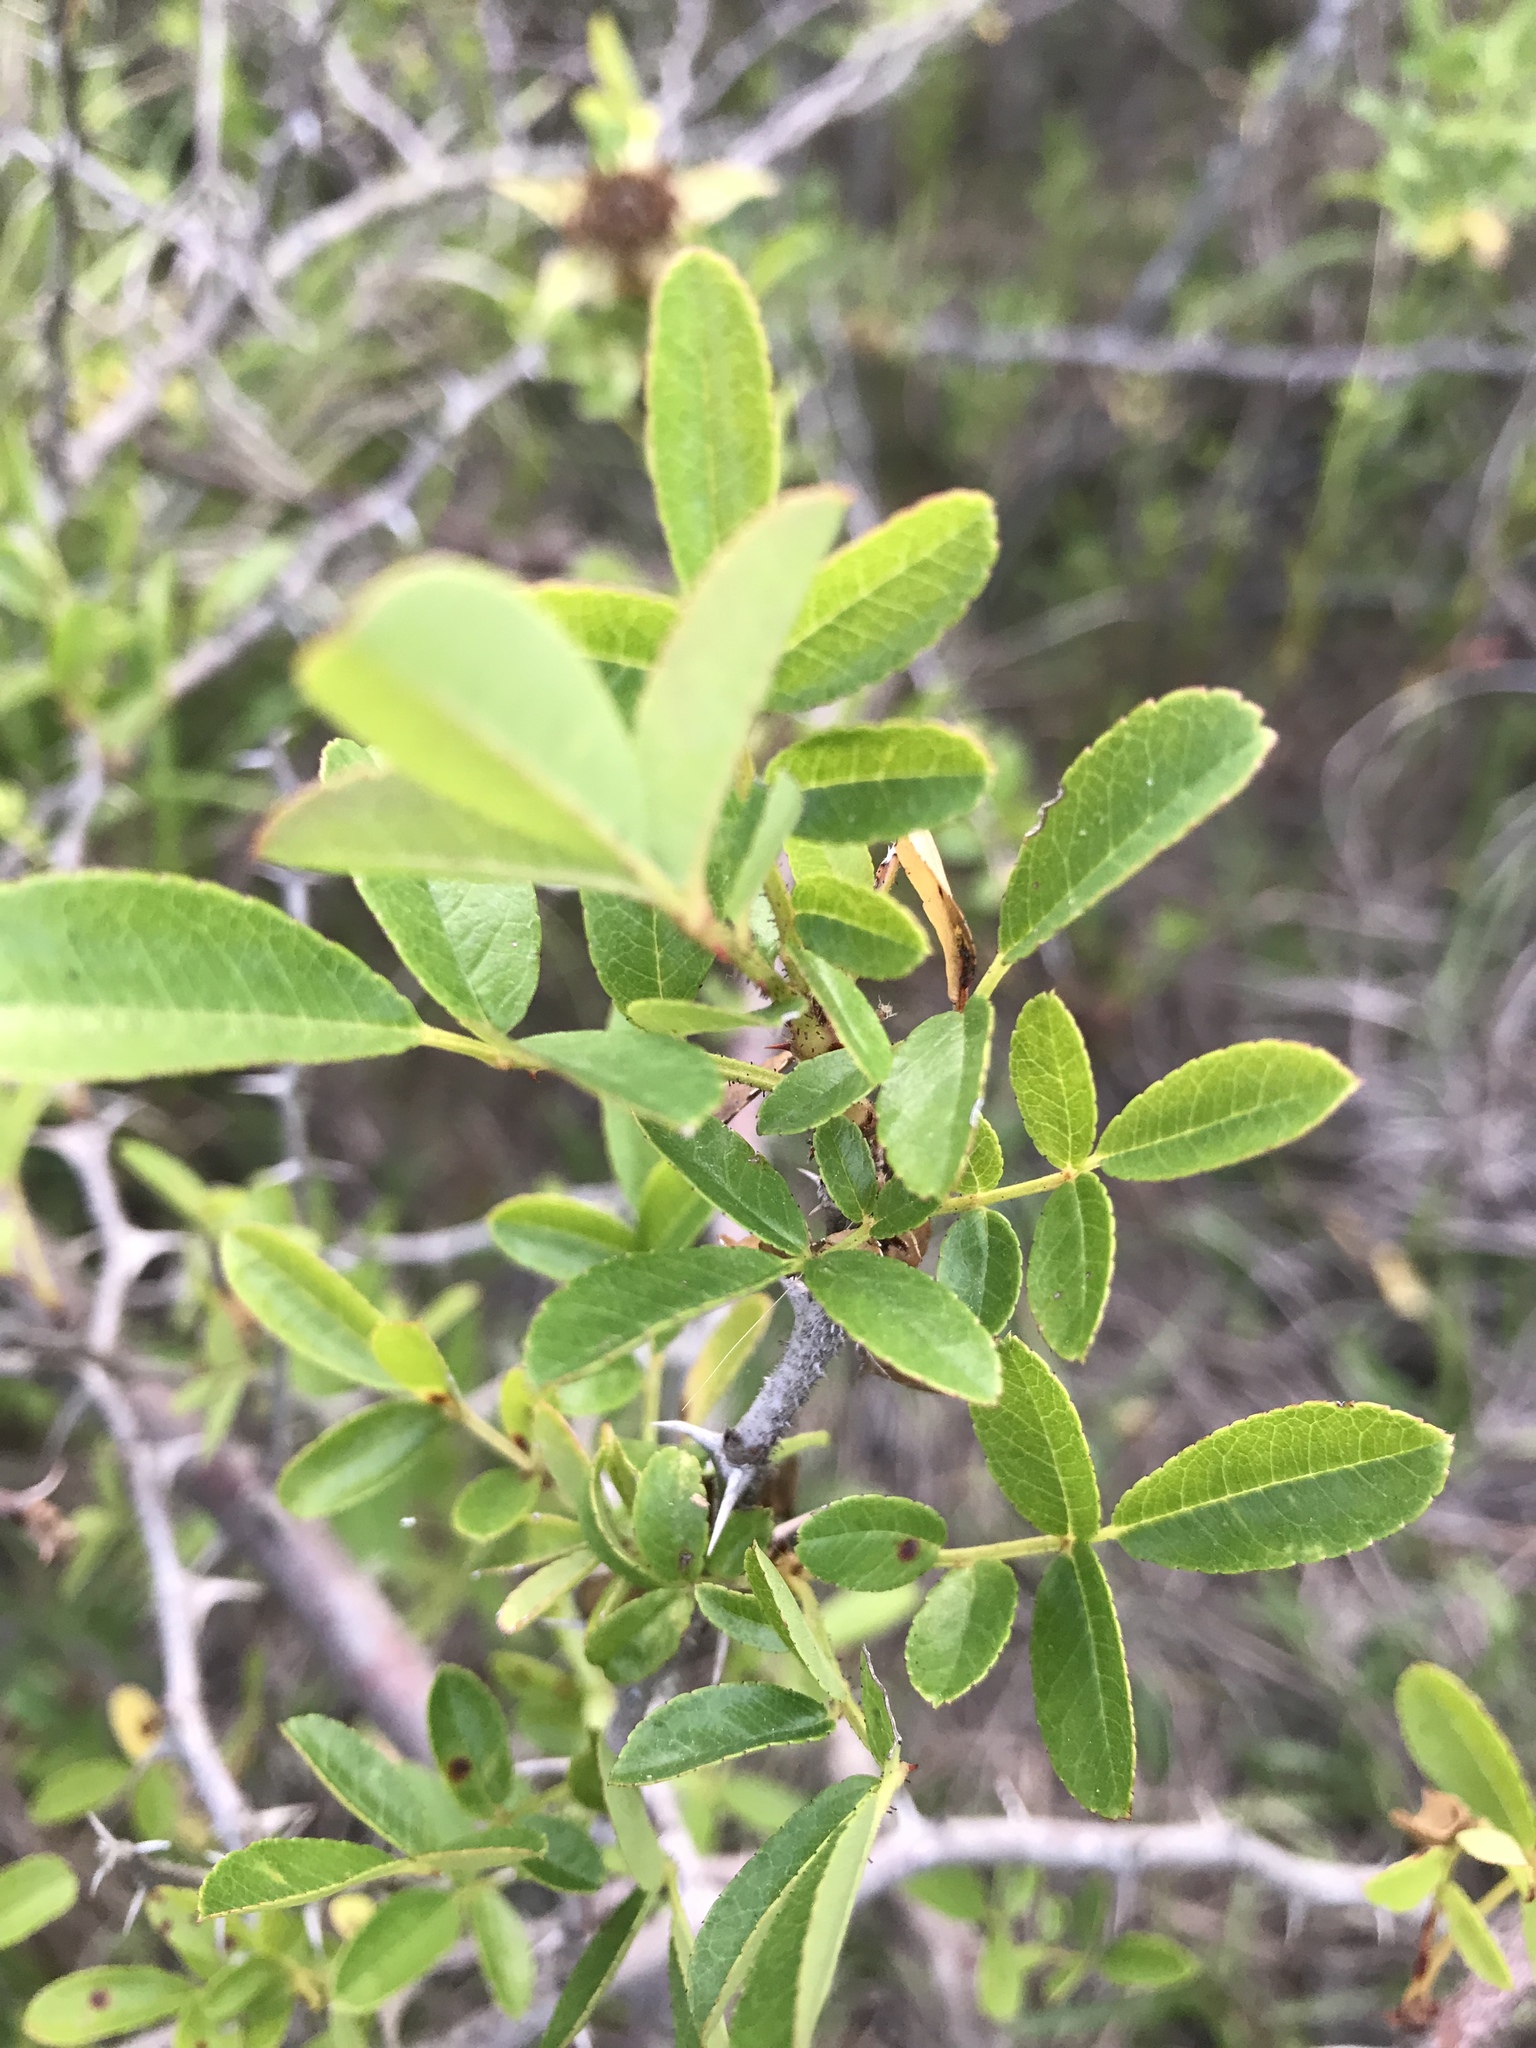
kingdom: Plantae
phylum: Tracheophyta
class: Magnoliopsida
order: Rosales
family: Rosaceae
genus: Rosa
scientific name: Rosa bracteata
